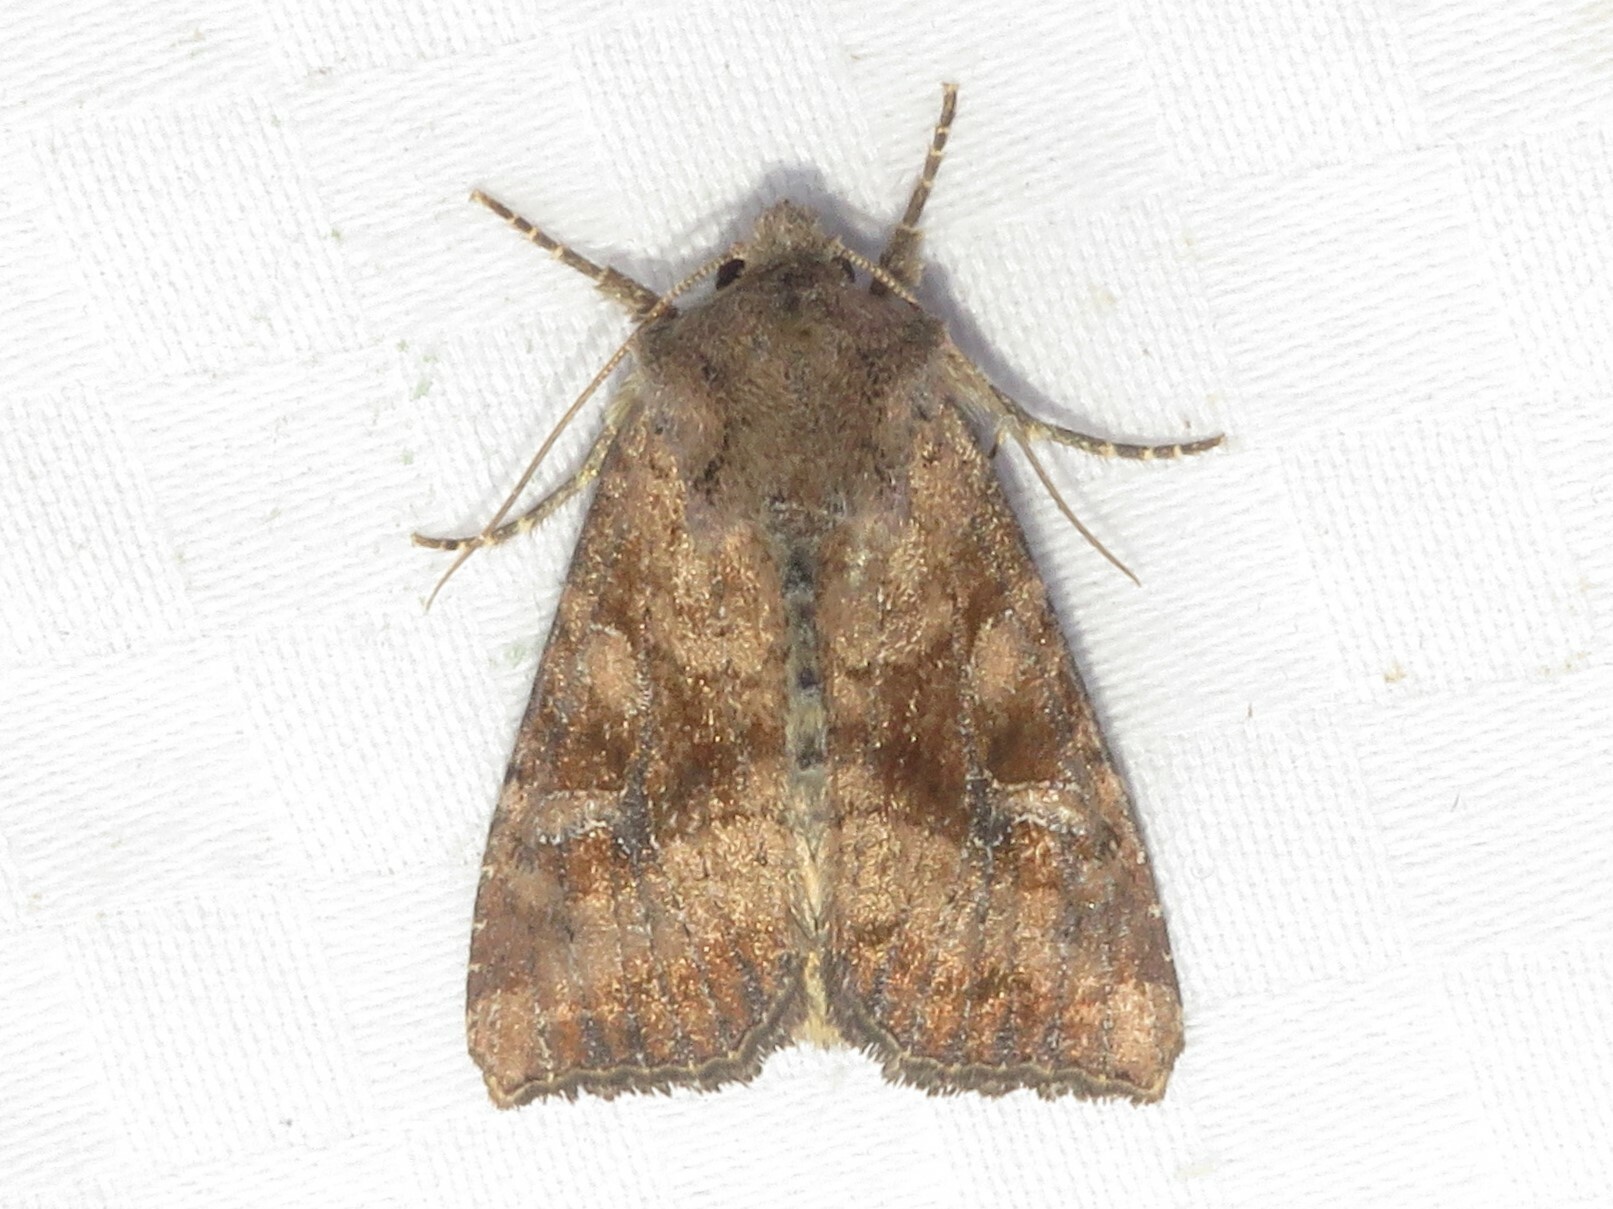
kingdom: Animalia
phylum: Arthropoda
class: Insecta
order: Lepidoptera
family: Noctuidae
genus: Loscopia
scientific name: Loscopia velata
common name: Veiled ear moth
